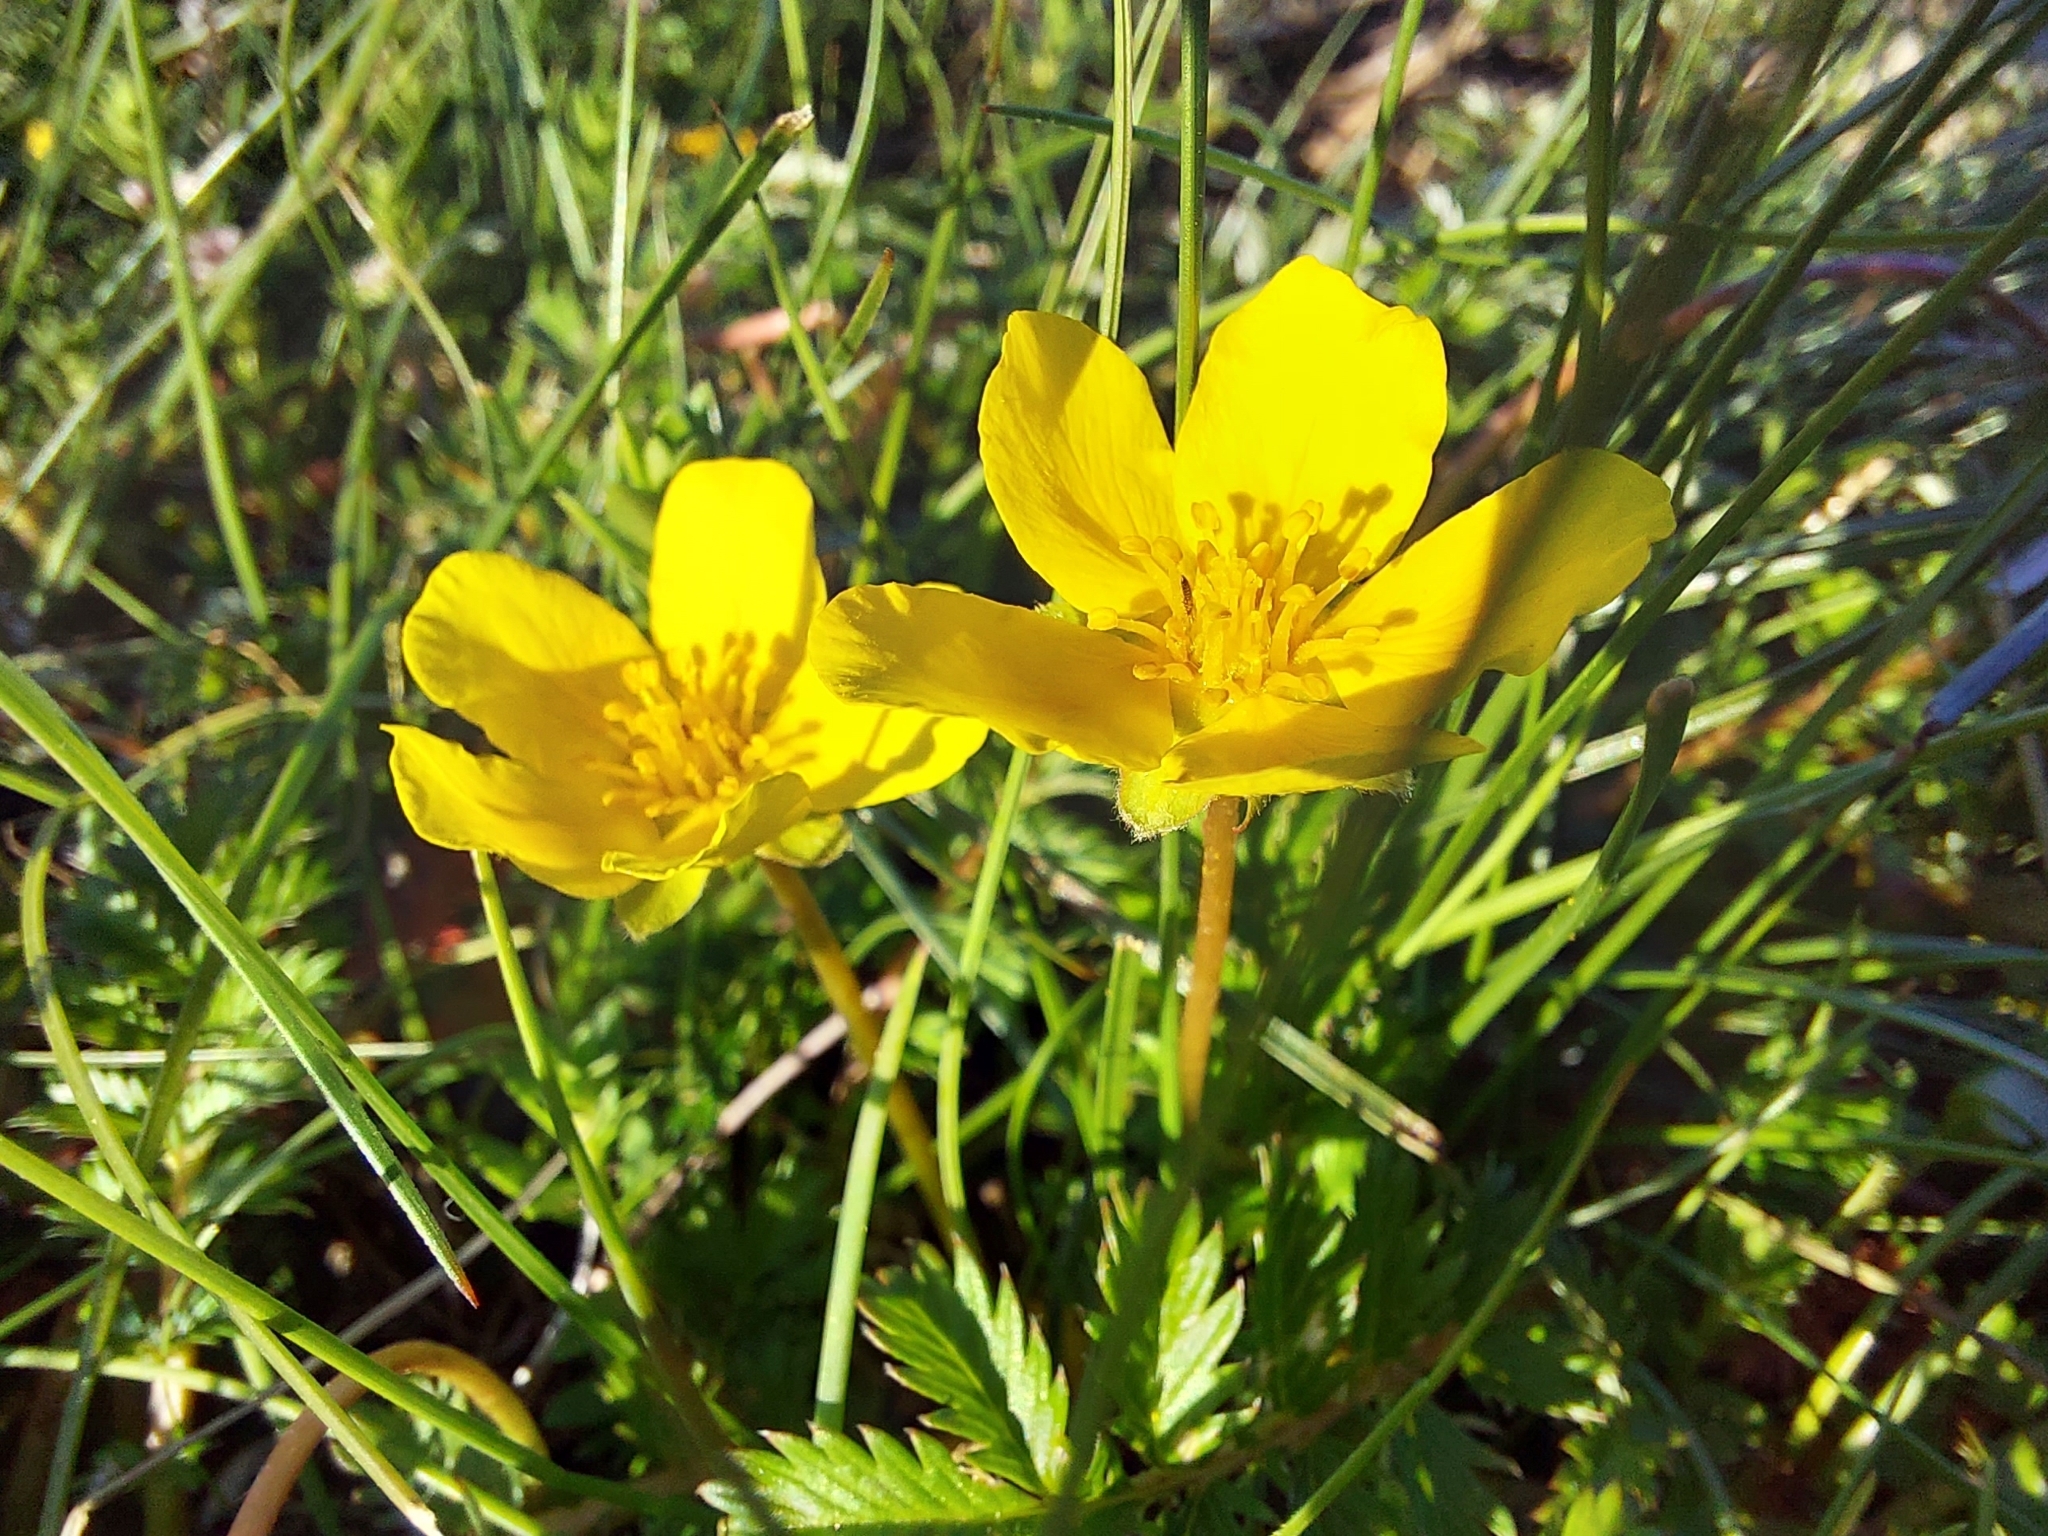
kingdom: Plantae
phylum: Tracheophyta
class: Magnoliopsida
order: Rosales
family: Rosaceae
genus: Argentina
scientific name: Argentina anserina
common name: Common silverweed
